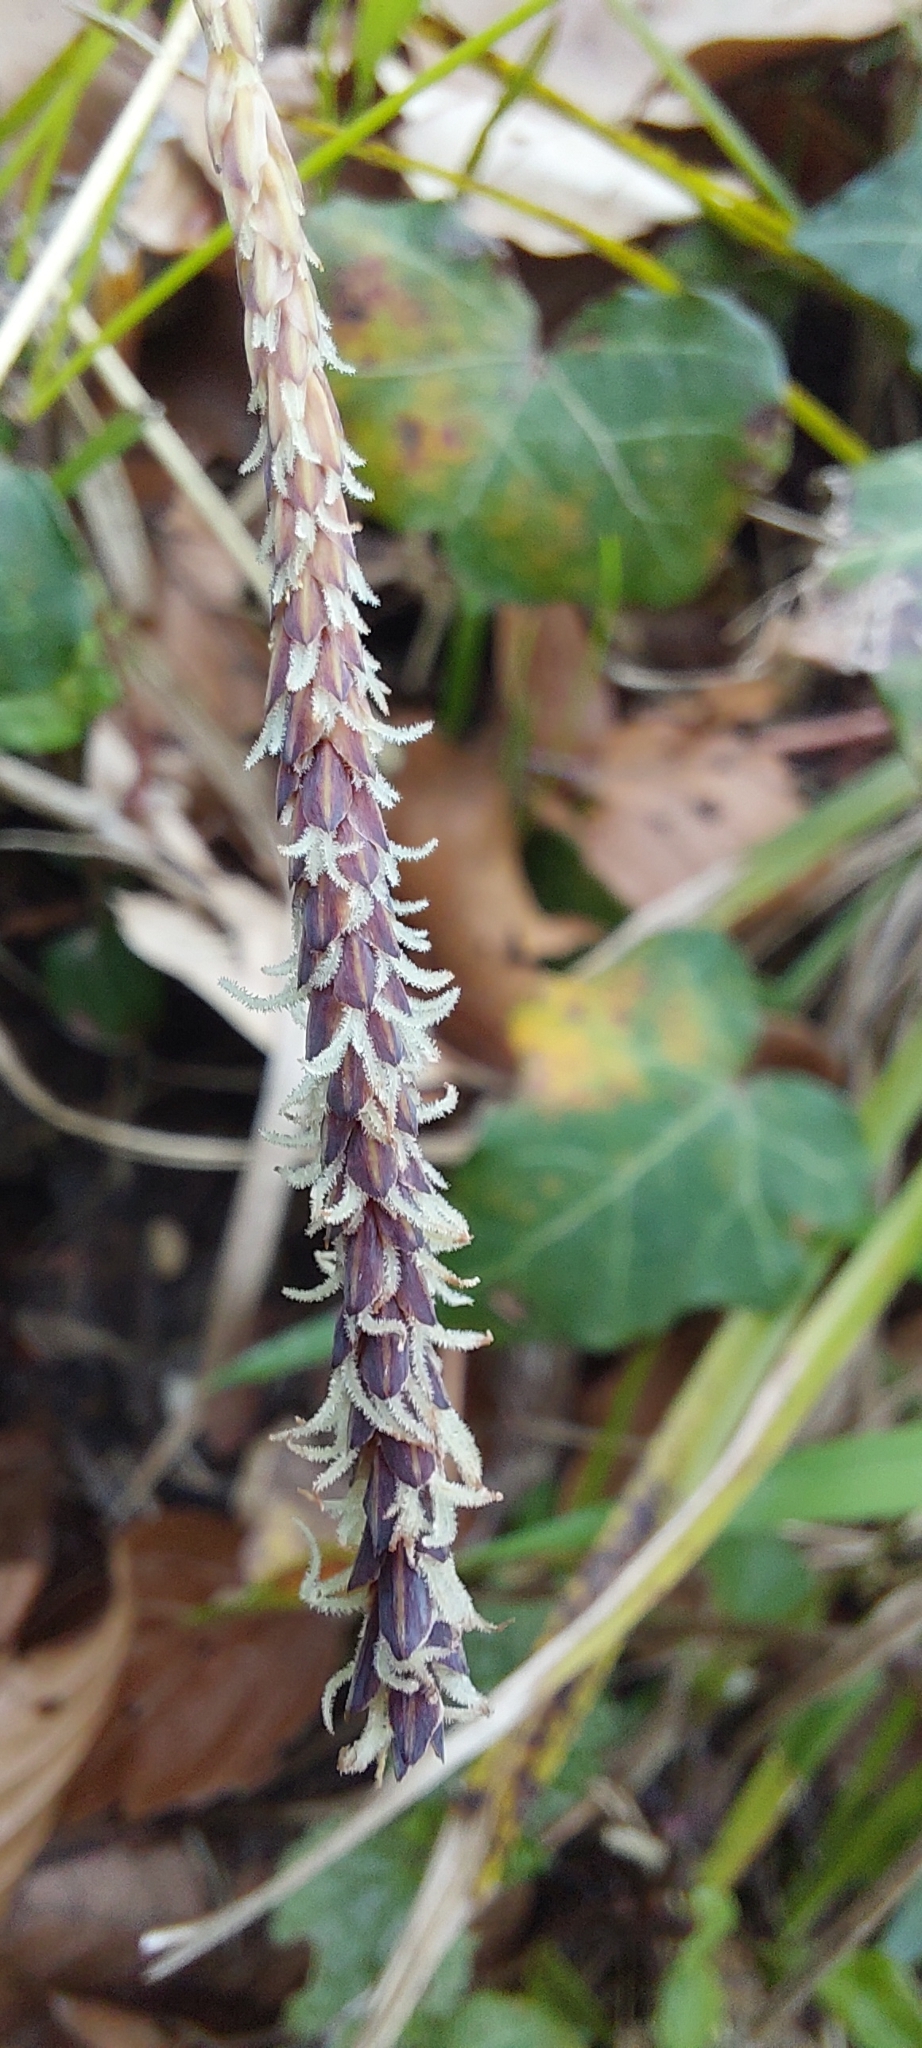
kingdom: Plantae
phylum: Tracheophyta
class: Liliopsida
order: Poales
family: Cyperaceae
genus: Carex
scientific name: Carex flacca
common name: Glaucous sedge
